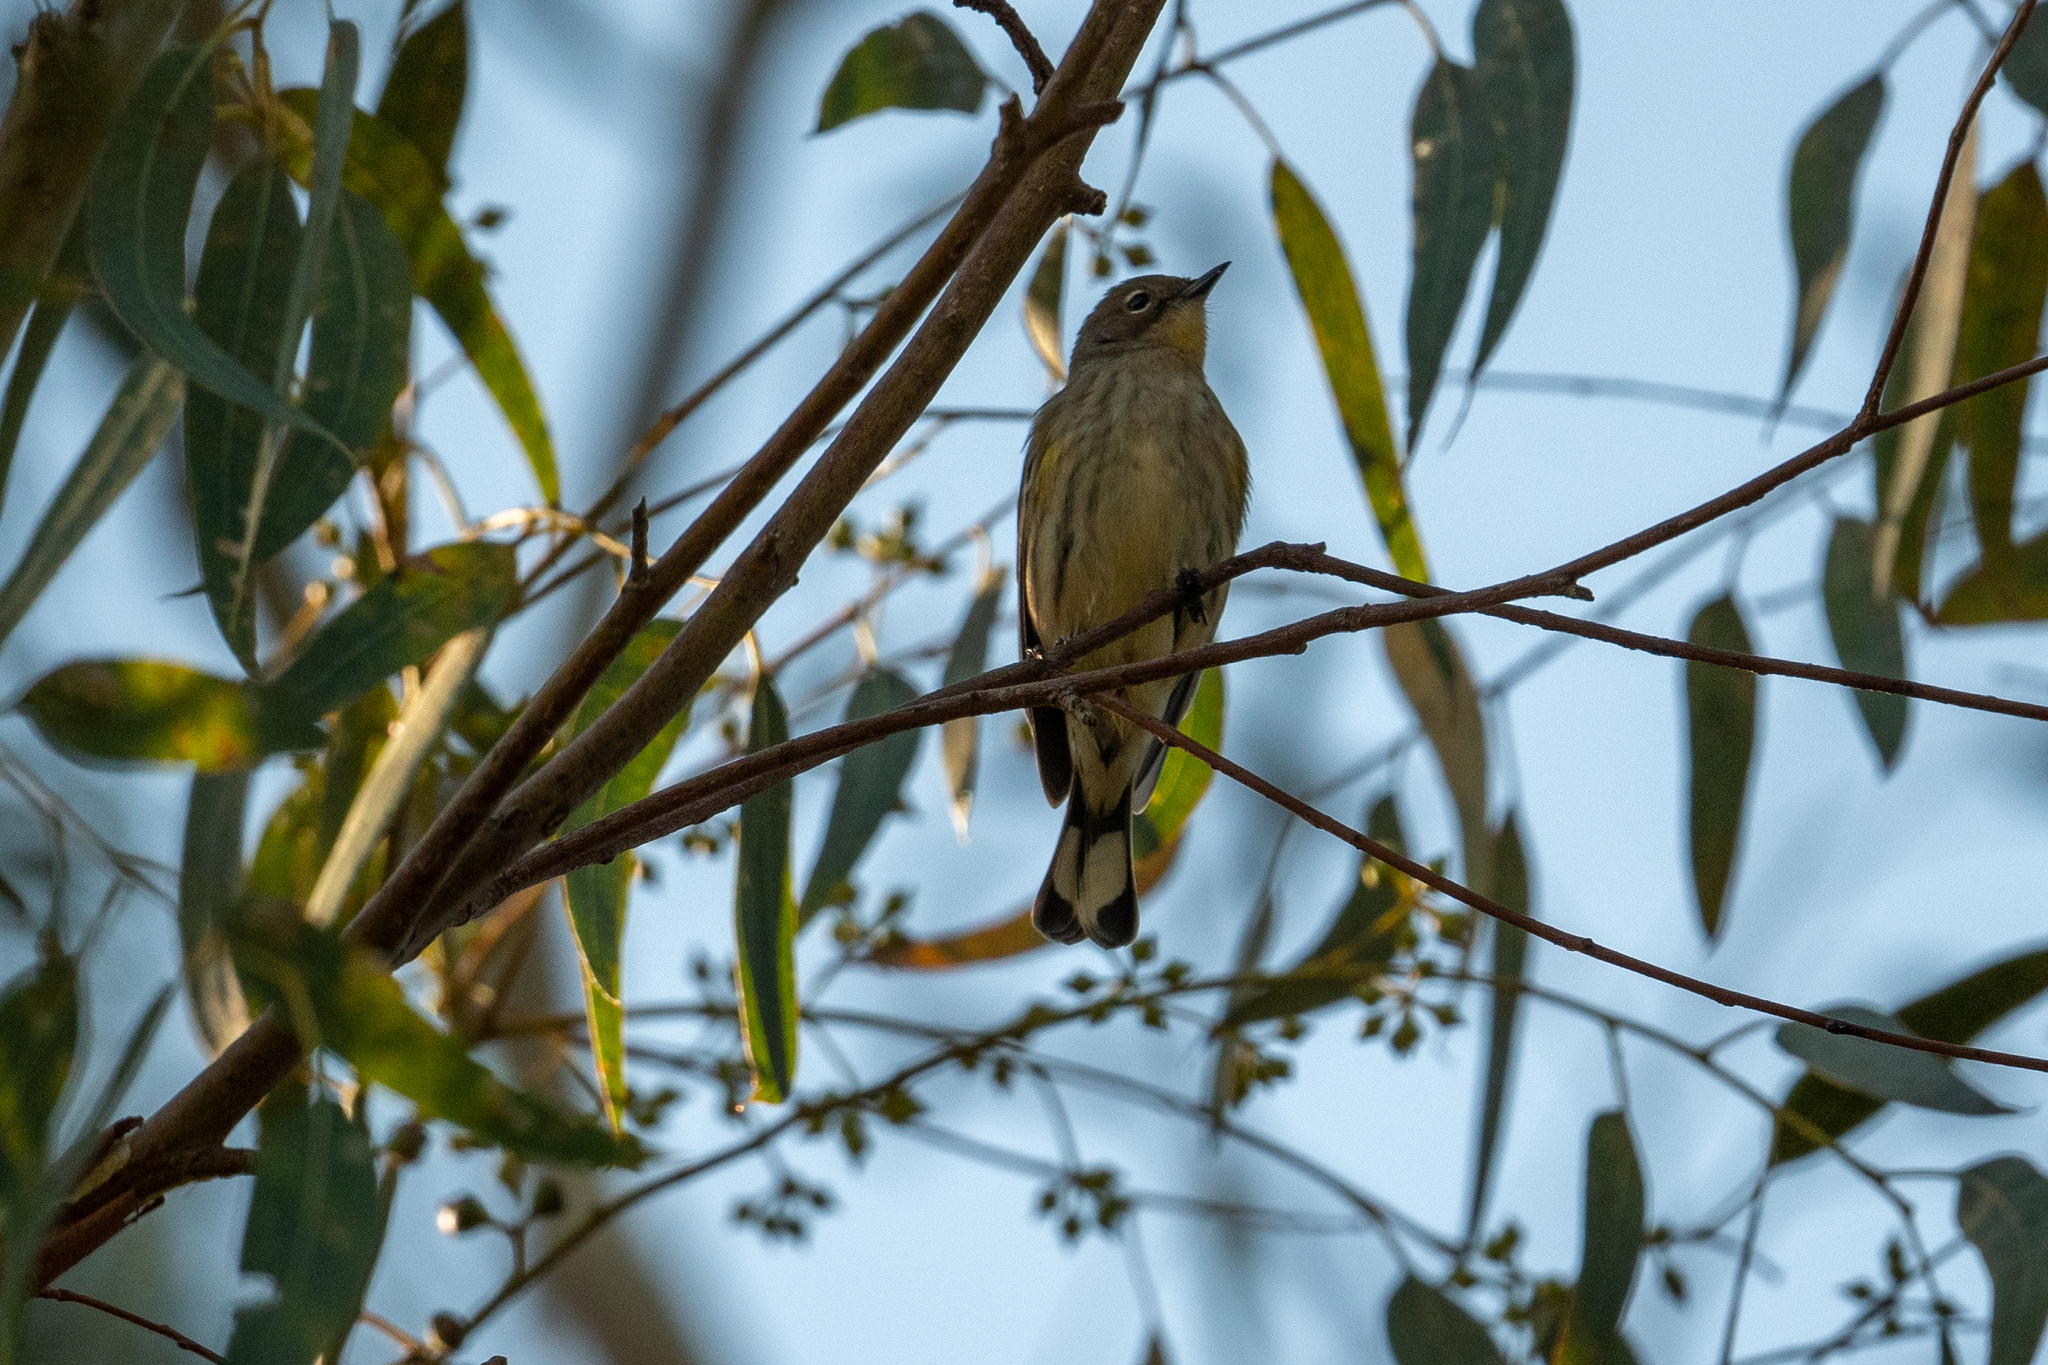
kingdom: Animalia
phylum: Chordata
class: Aves
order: Passeriformes
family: Parulidae
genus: Setophaga
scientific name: Setophaga coronata
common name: Myrtle warbler
